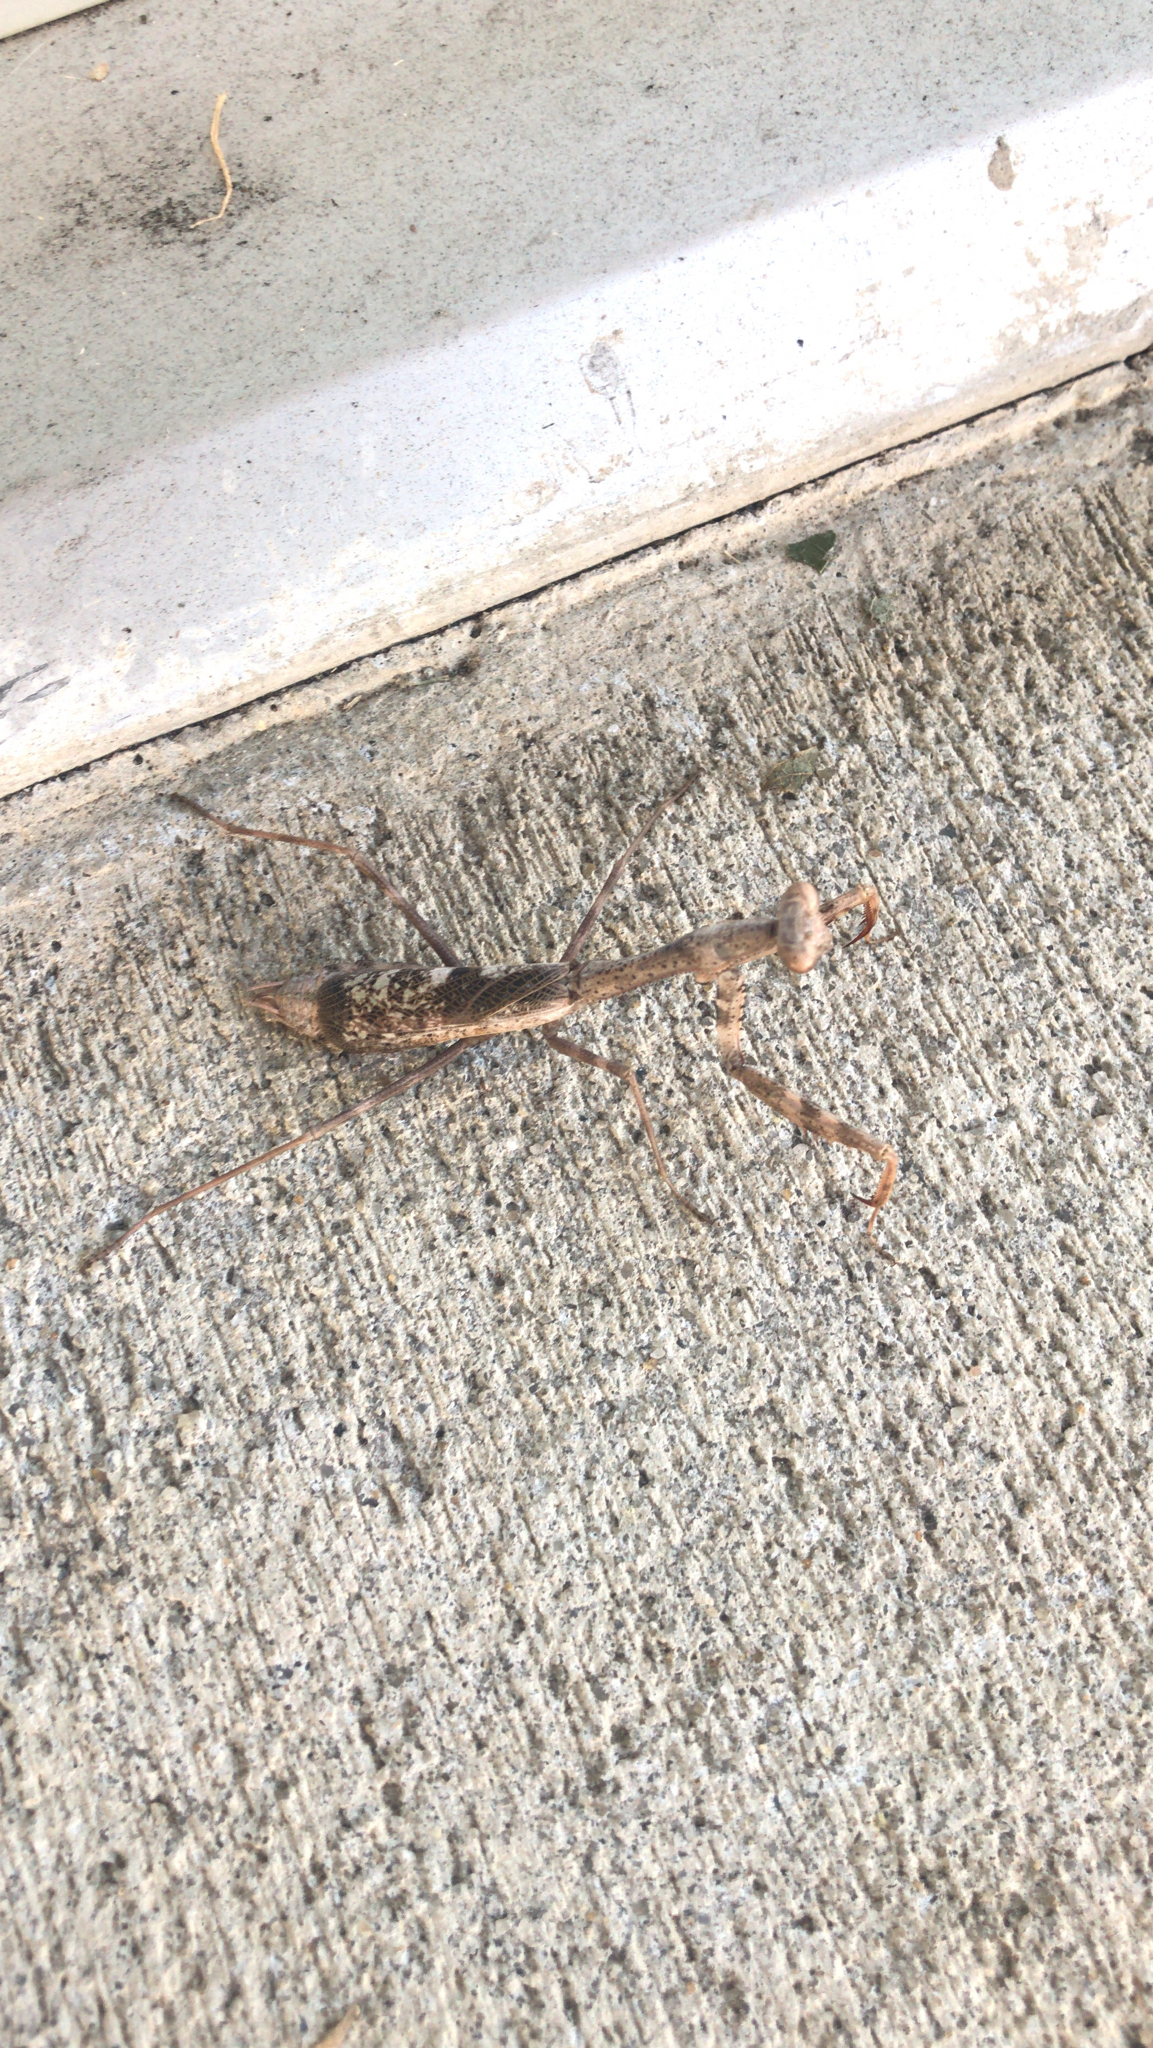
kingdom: Animalia
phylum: Arthropoda
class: Insecta
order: Mantodea
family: Mantidae
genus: Stagmomantis
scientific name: Stagmomantis carolina
